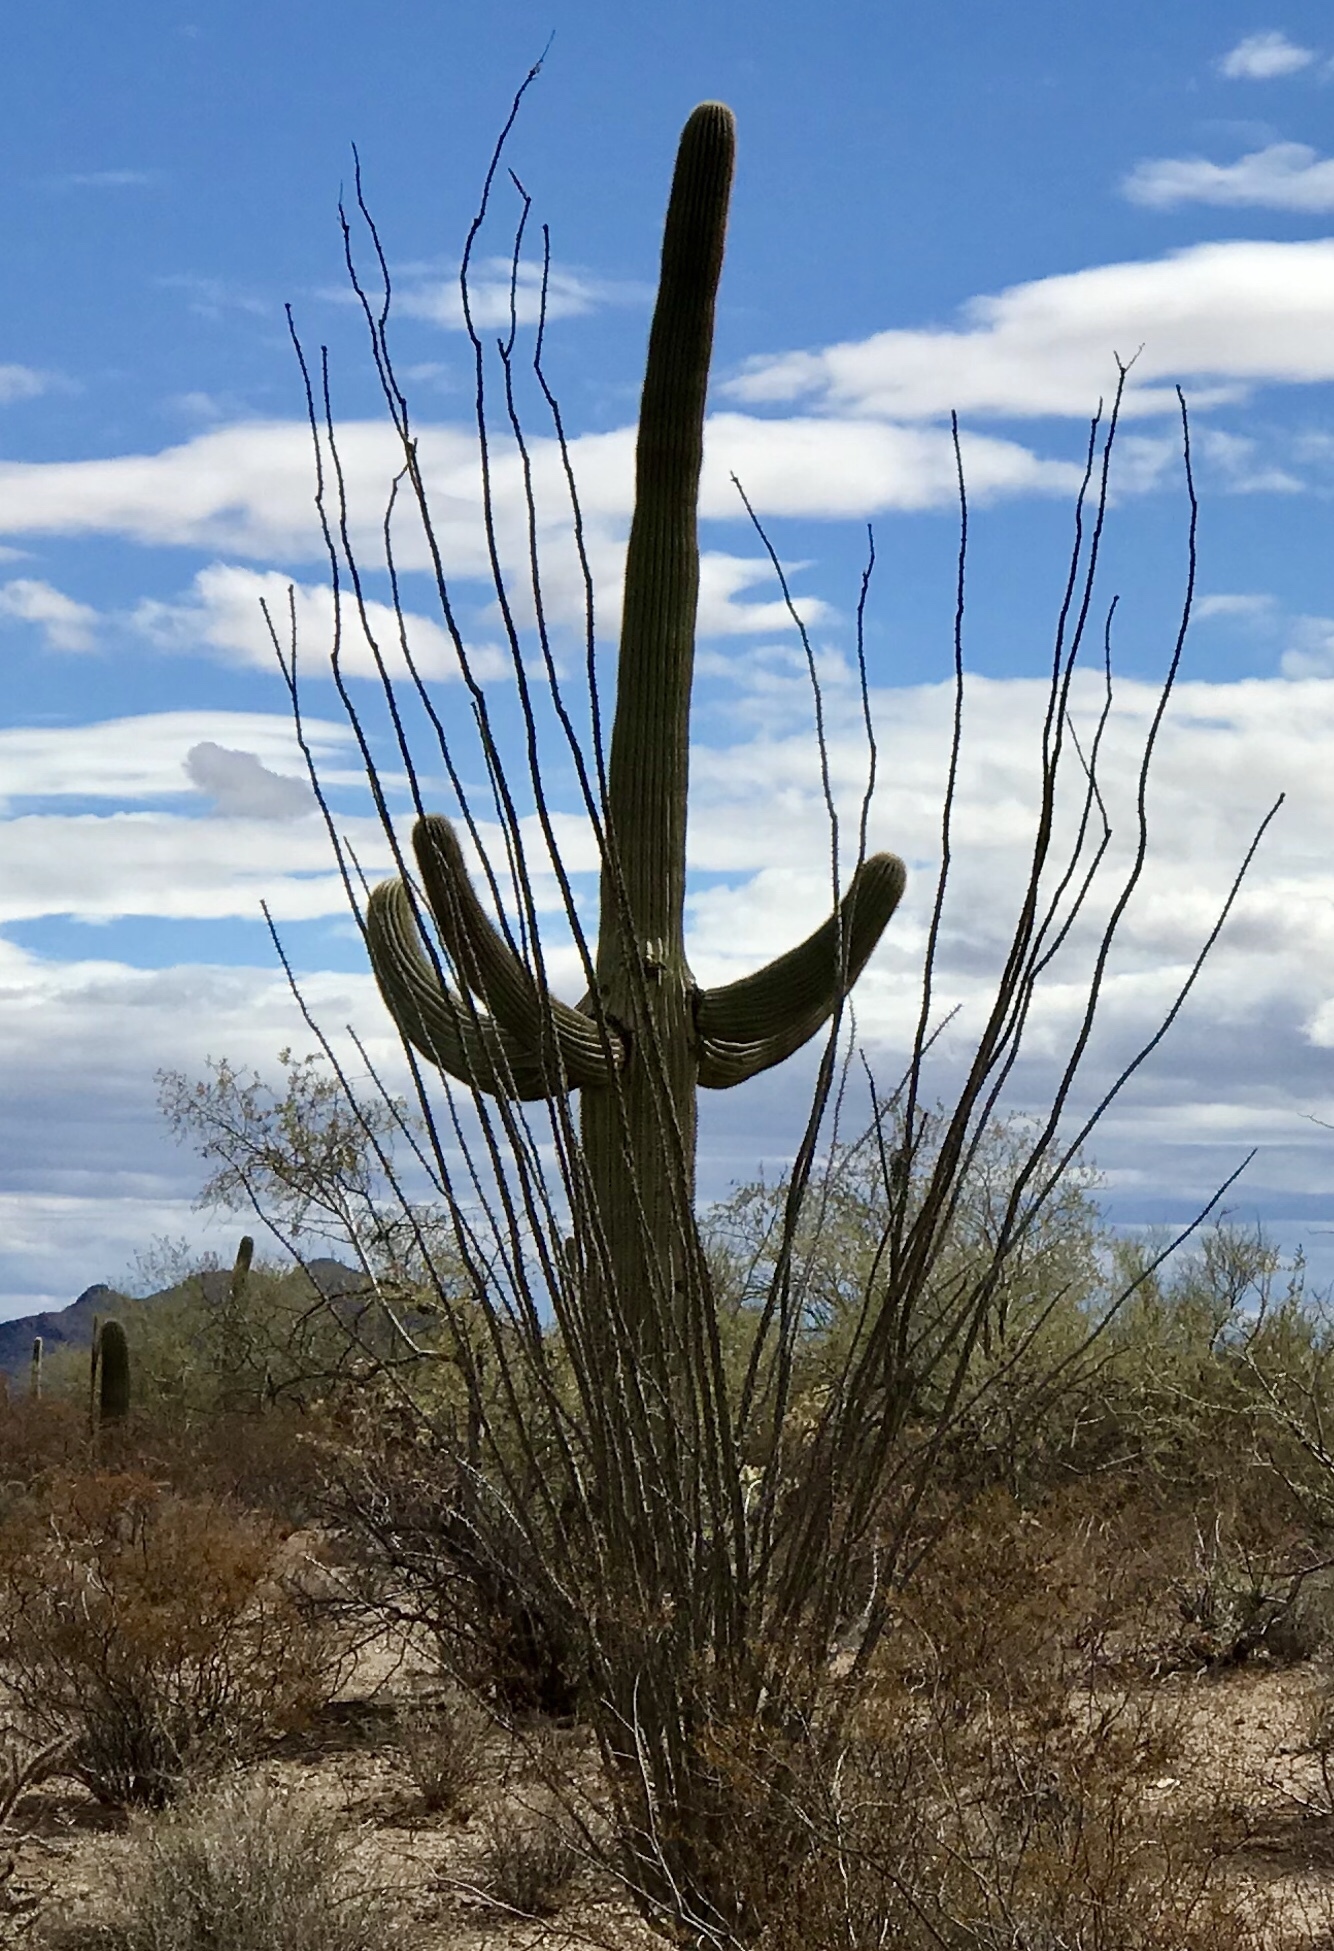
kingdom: Plantae
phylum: Tracheophyta
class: Magnoliopsida
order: Caryophyllales
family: Cactaceae
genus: Carnegiea
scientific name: Carnegiea gigantea
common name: Saguaro
